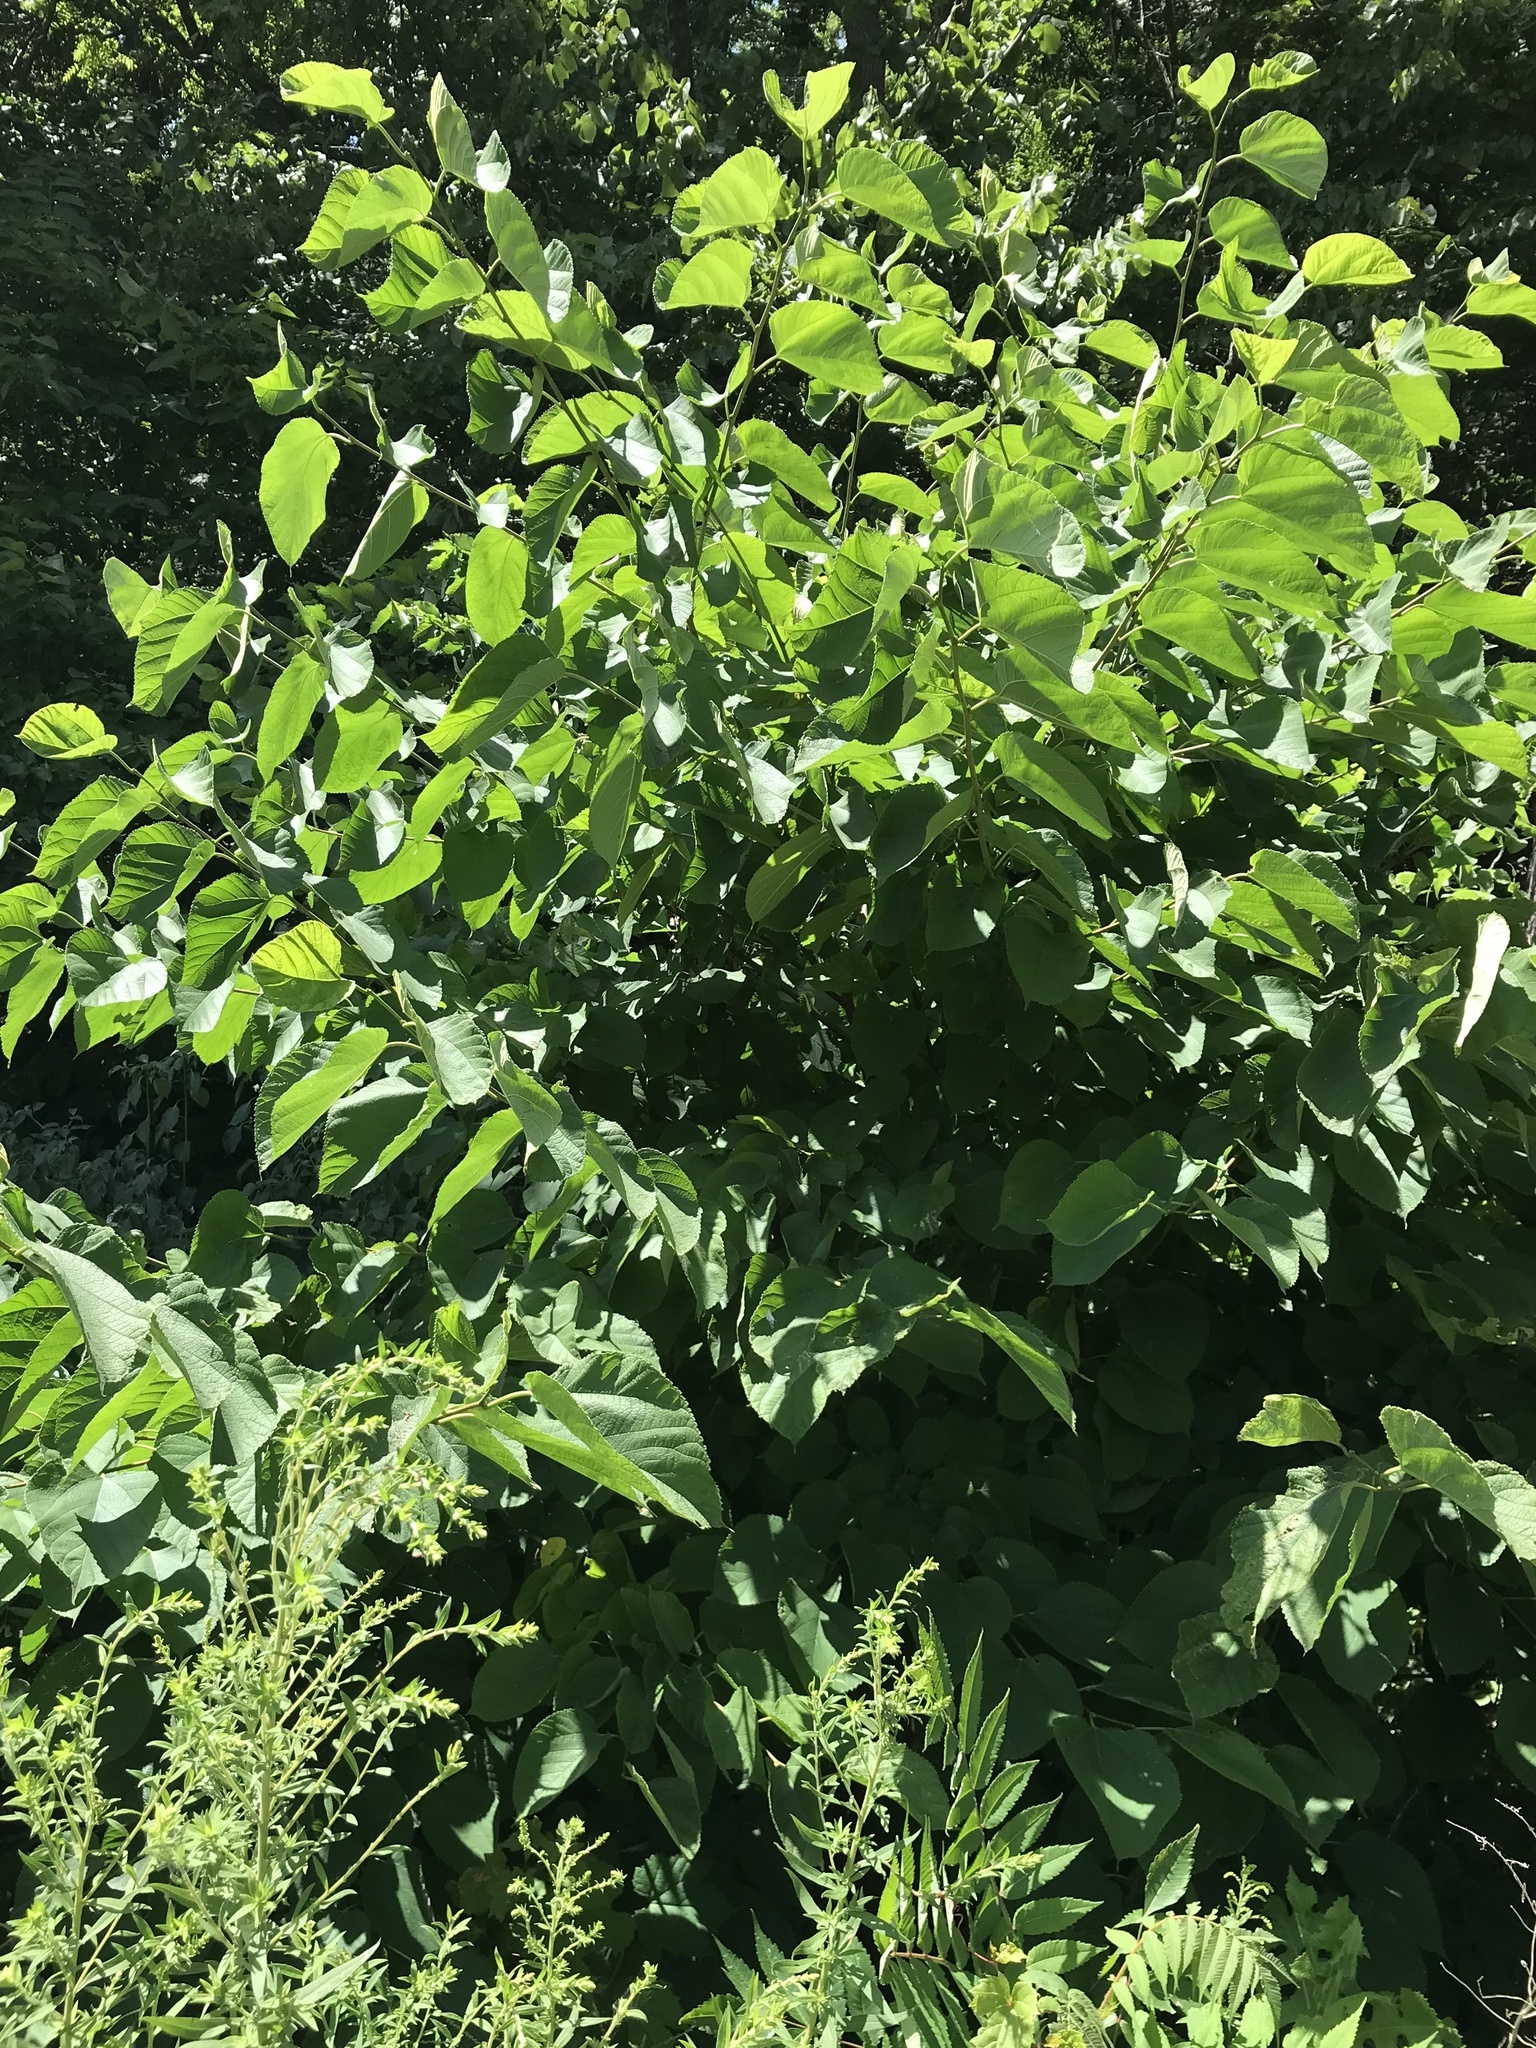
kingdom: Plantae
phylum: Tracheophyta
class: Magnoliopsida
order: Rosales
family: Moraceae
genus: Morus
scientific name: Morus rubra
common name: Red mulberry
